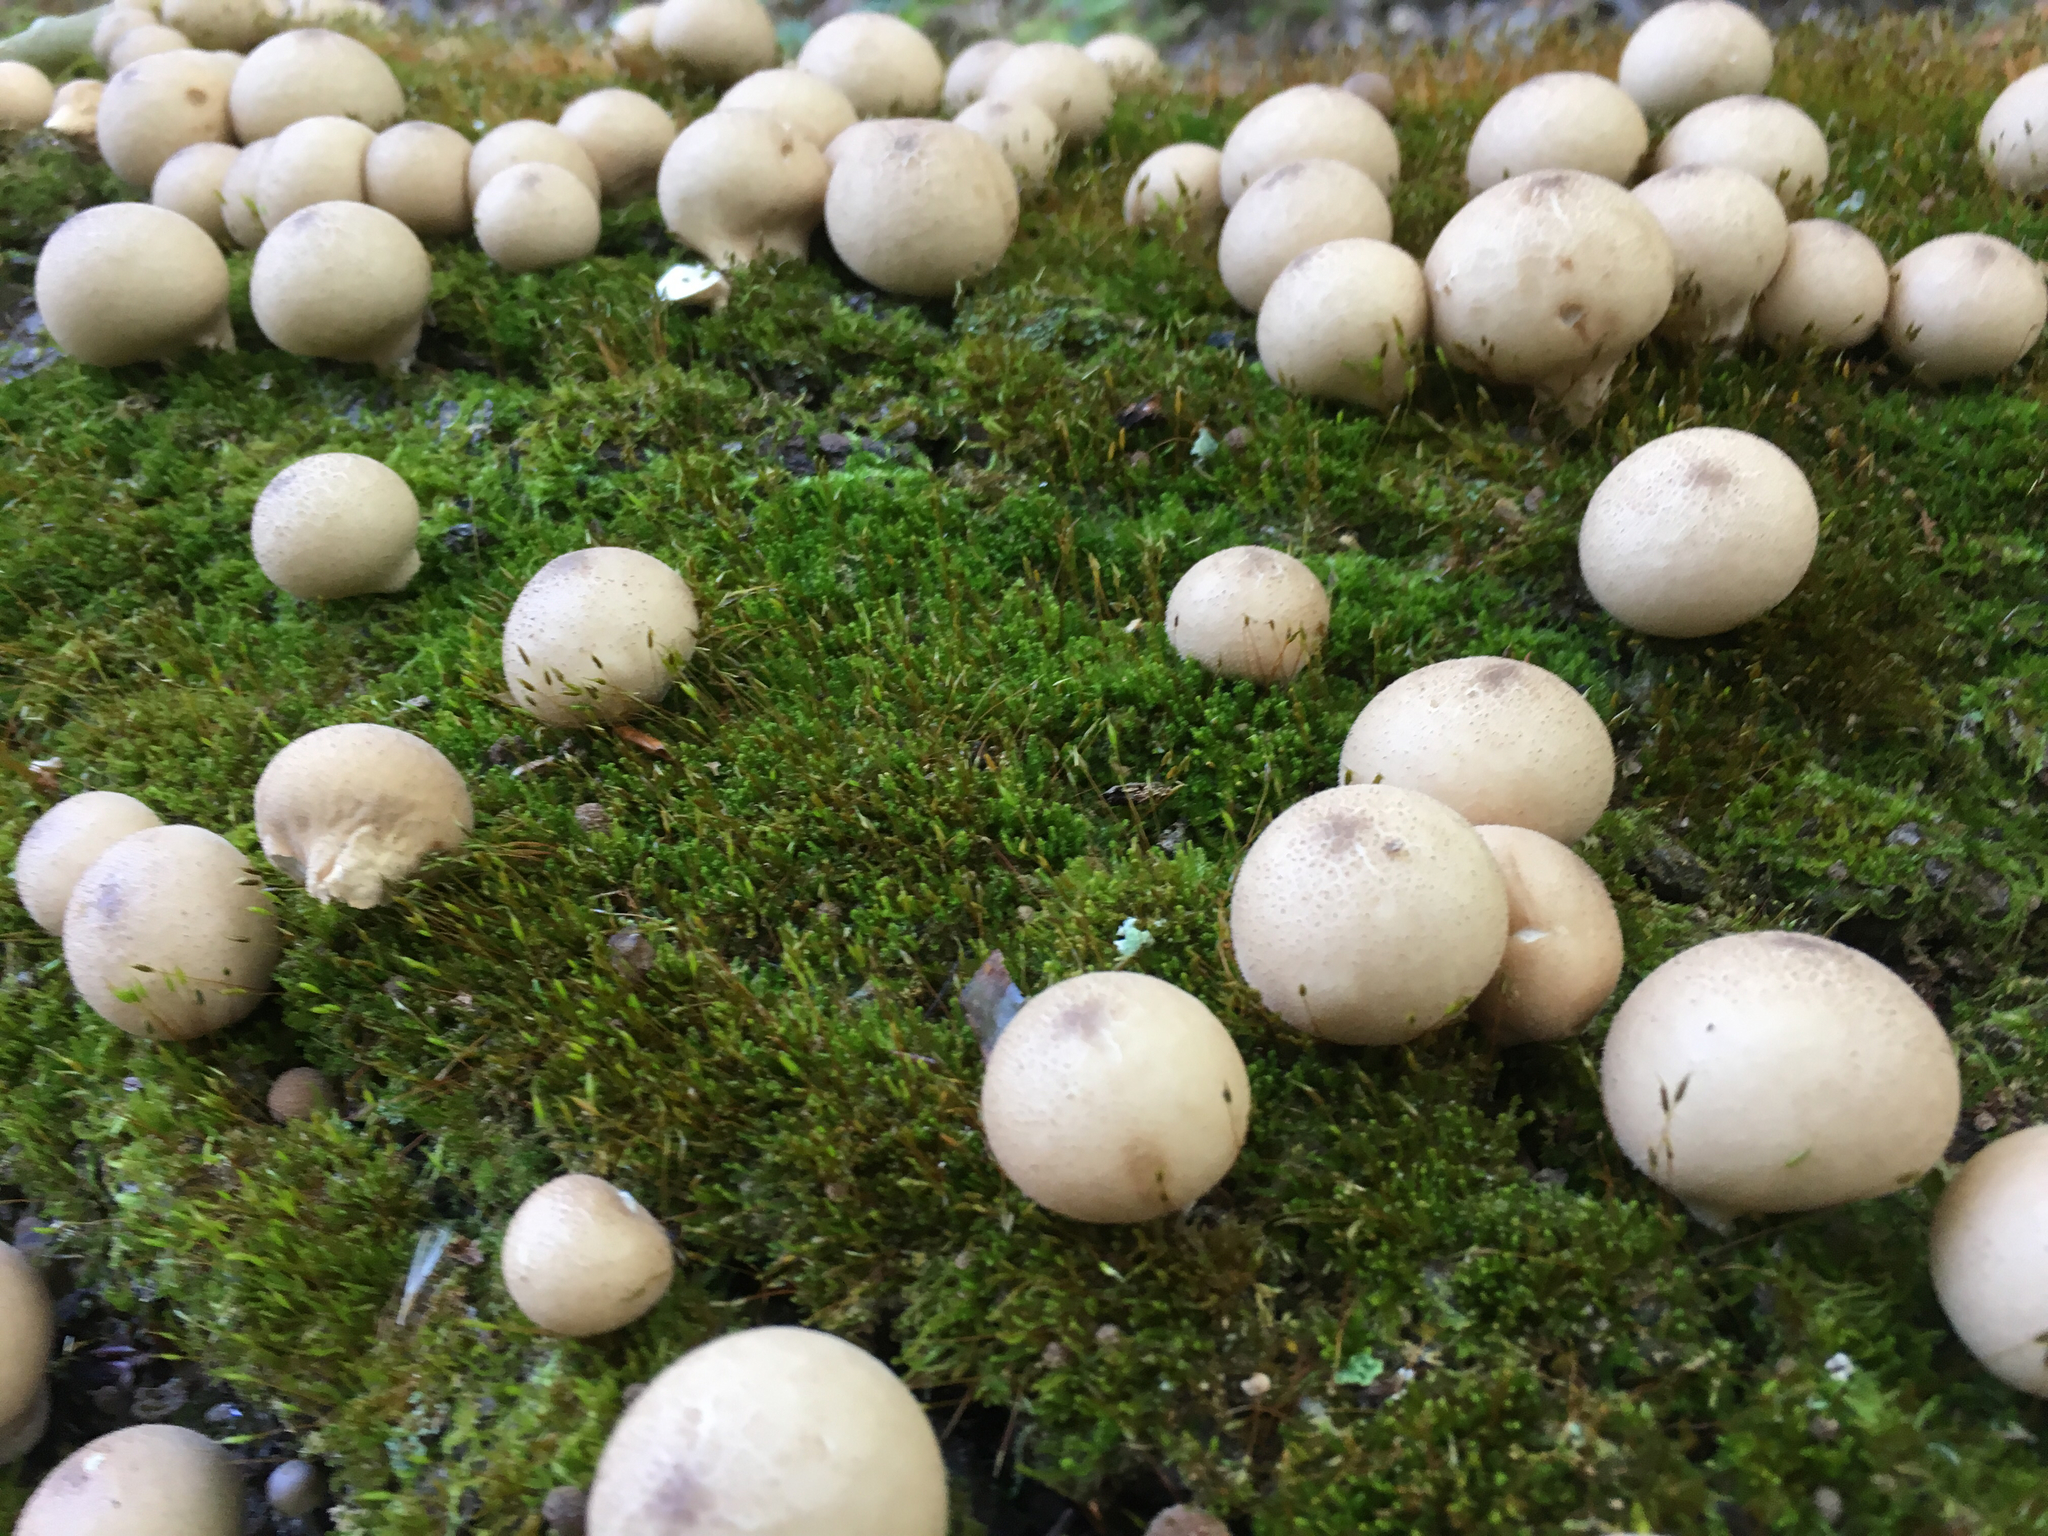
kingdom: Fungi
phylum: Basidiomycota
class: Agaricomycetes
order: Agaricales
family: Lycoperdaceae
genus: Lycoperdon
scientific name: Lycoperdon perlatum
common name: Common puffball
